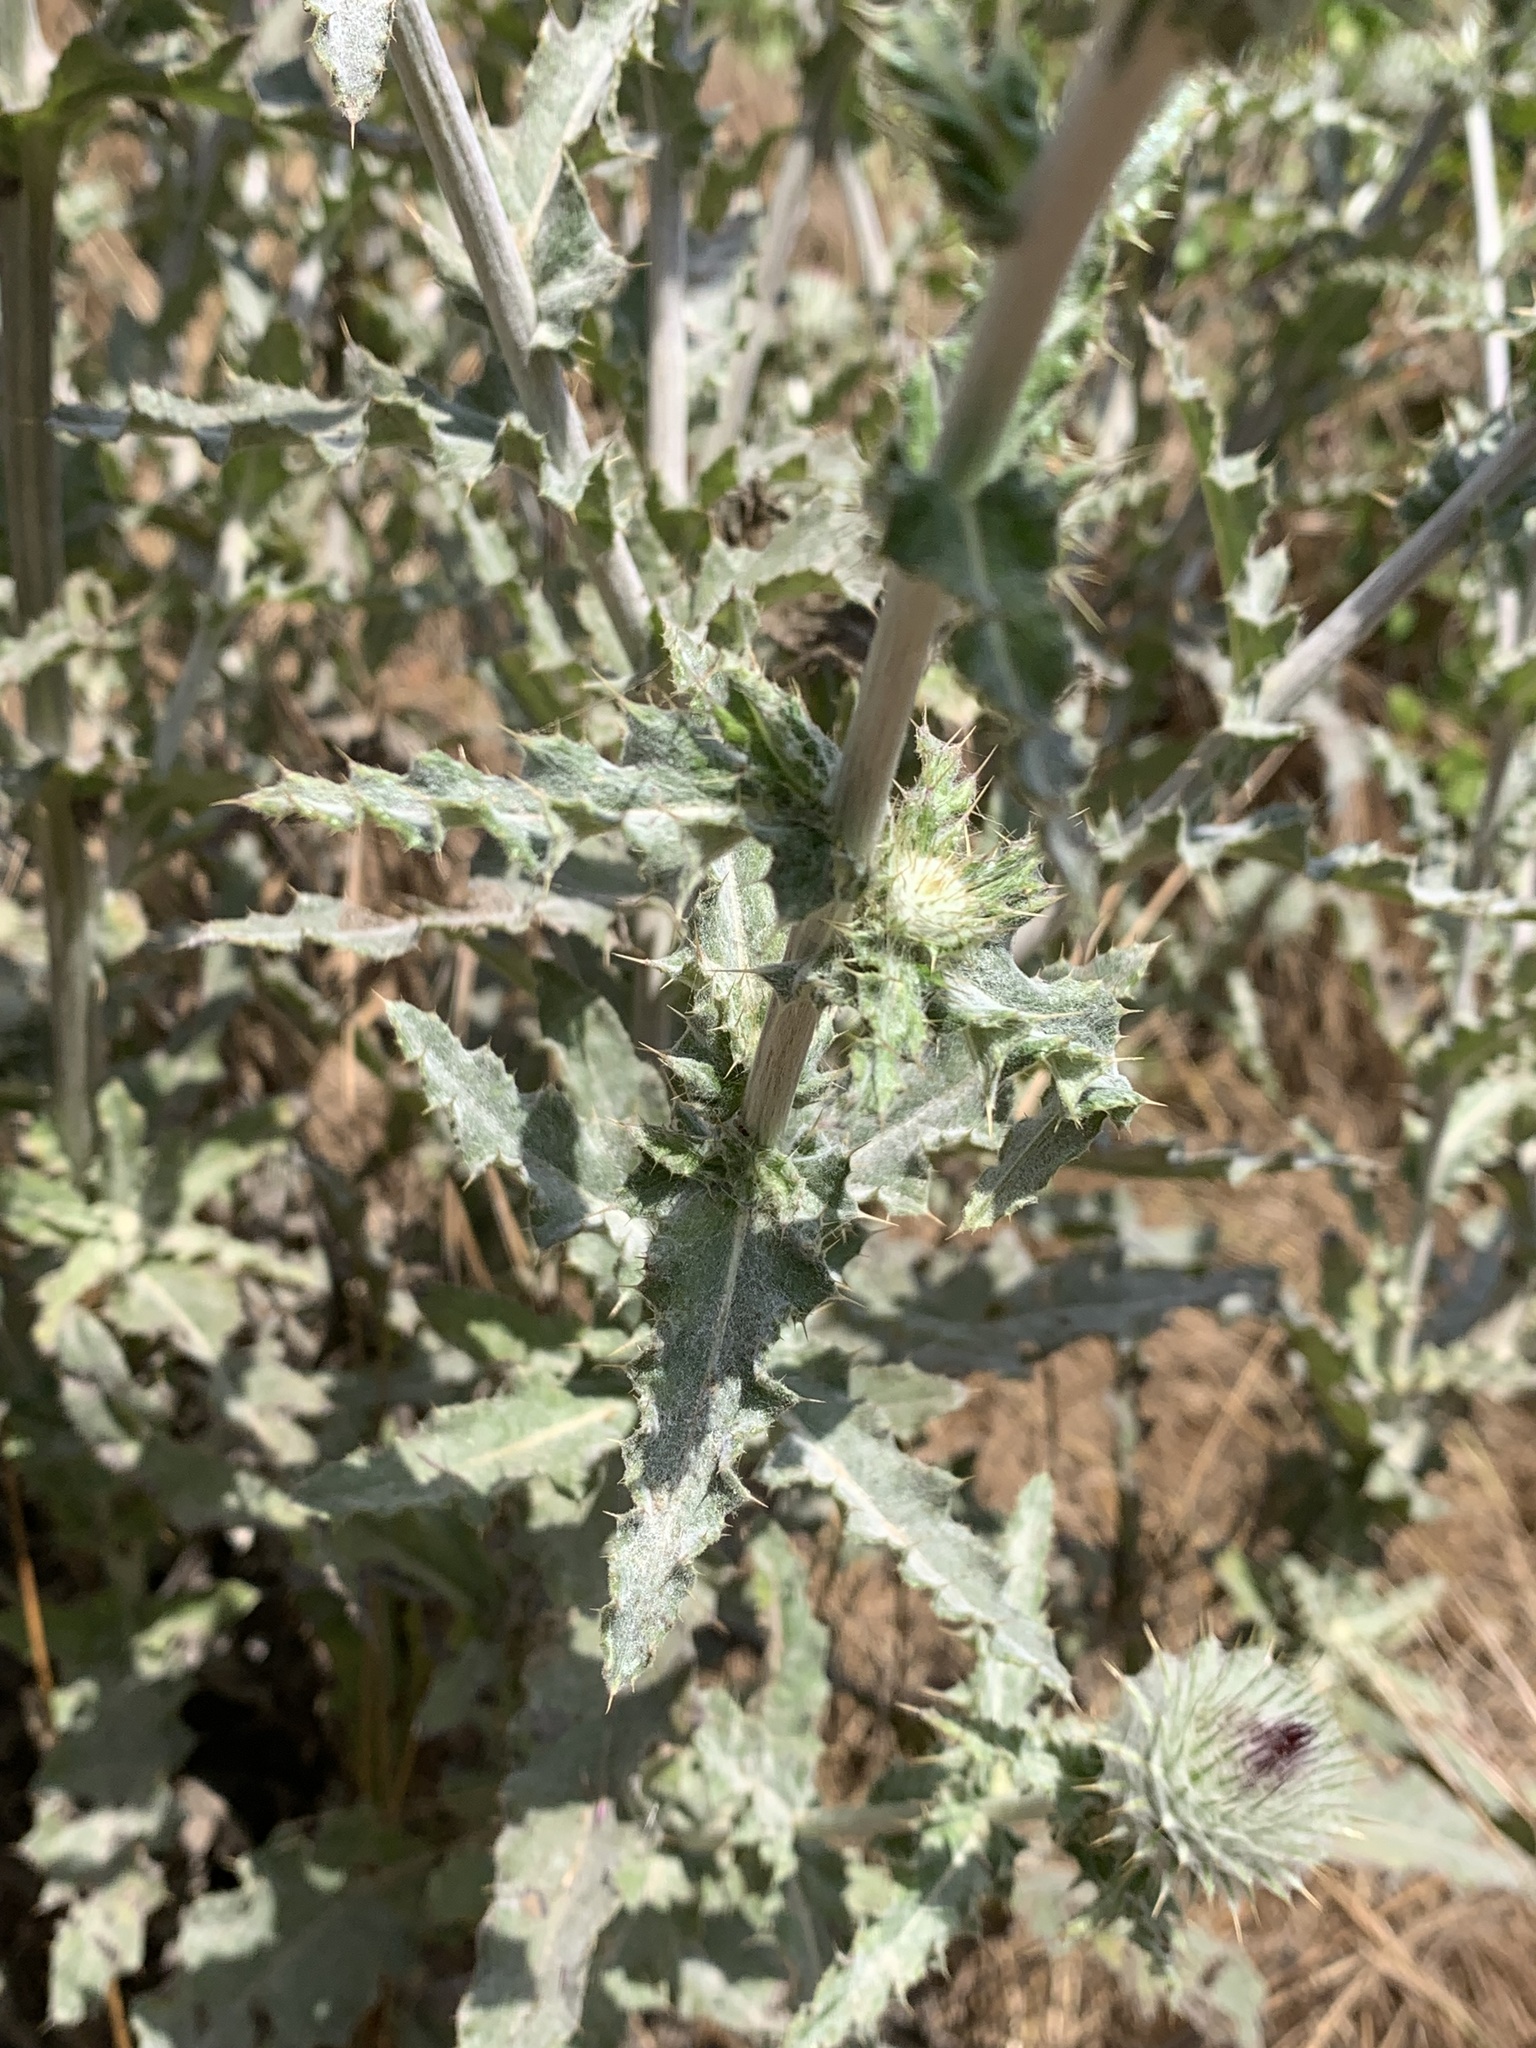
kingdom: Plantae
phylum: Tracheophyta
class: Magnoliopsida
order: Asterales
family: Asteraceae
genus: Cirsium
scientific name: Cirsium occidentale
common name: Western thistle
